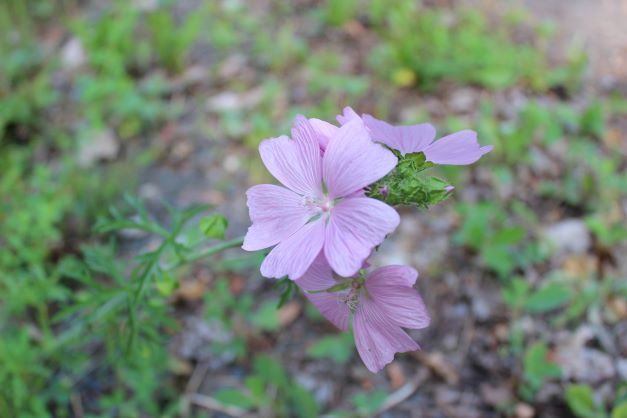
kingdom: Plantae
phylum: Tracheophyta
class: Magnoliopsida
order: Malvales
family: Malvaceae
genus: Malva
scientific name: Malva moschata
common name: Musk mallow
